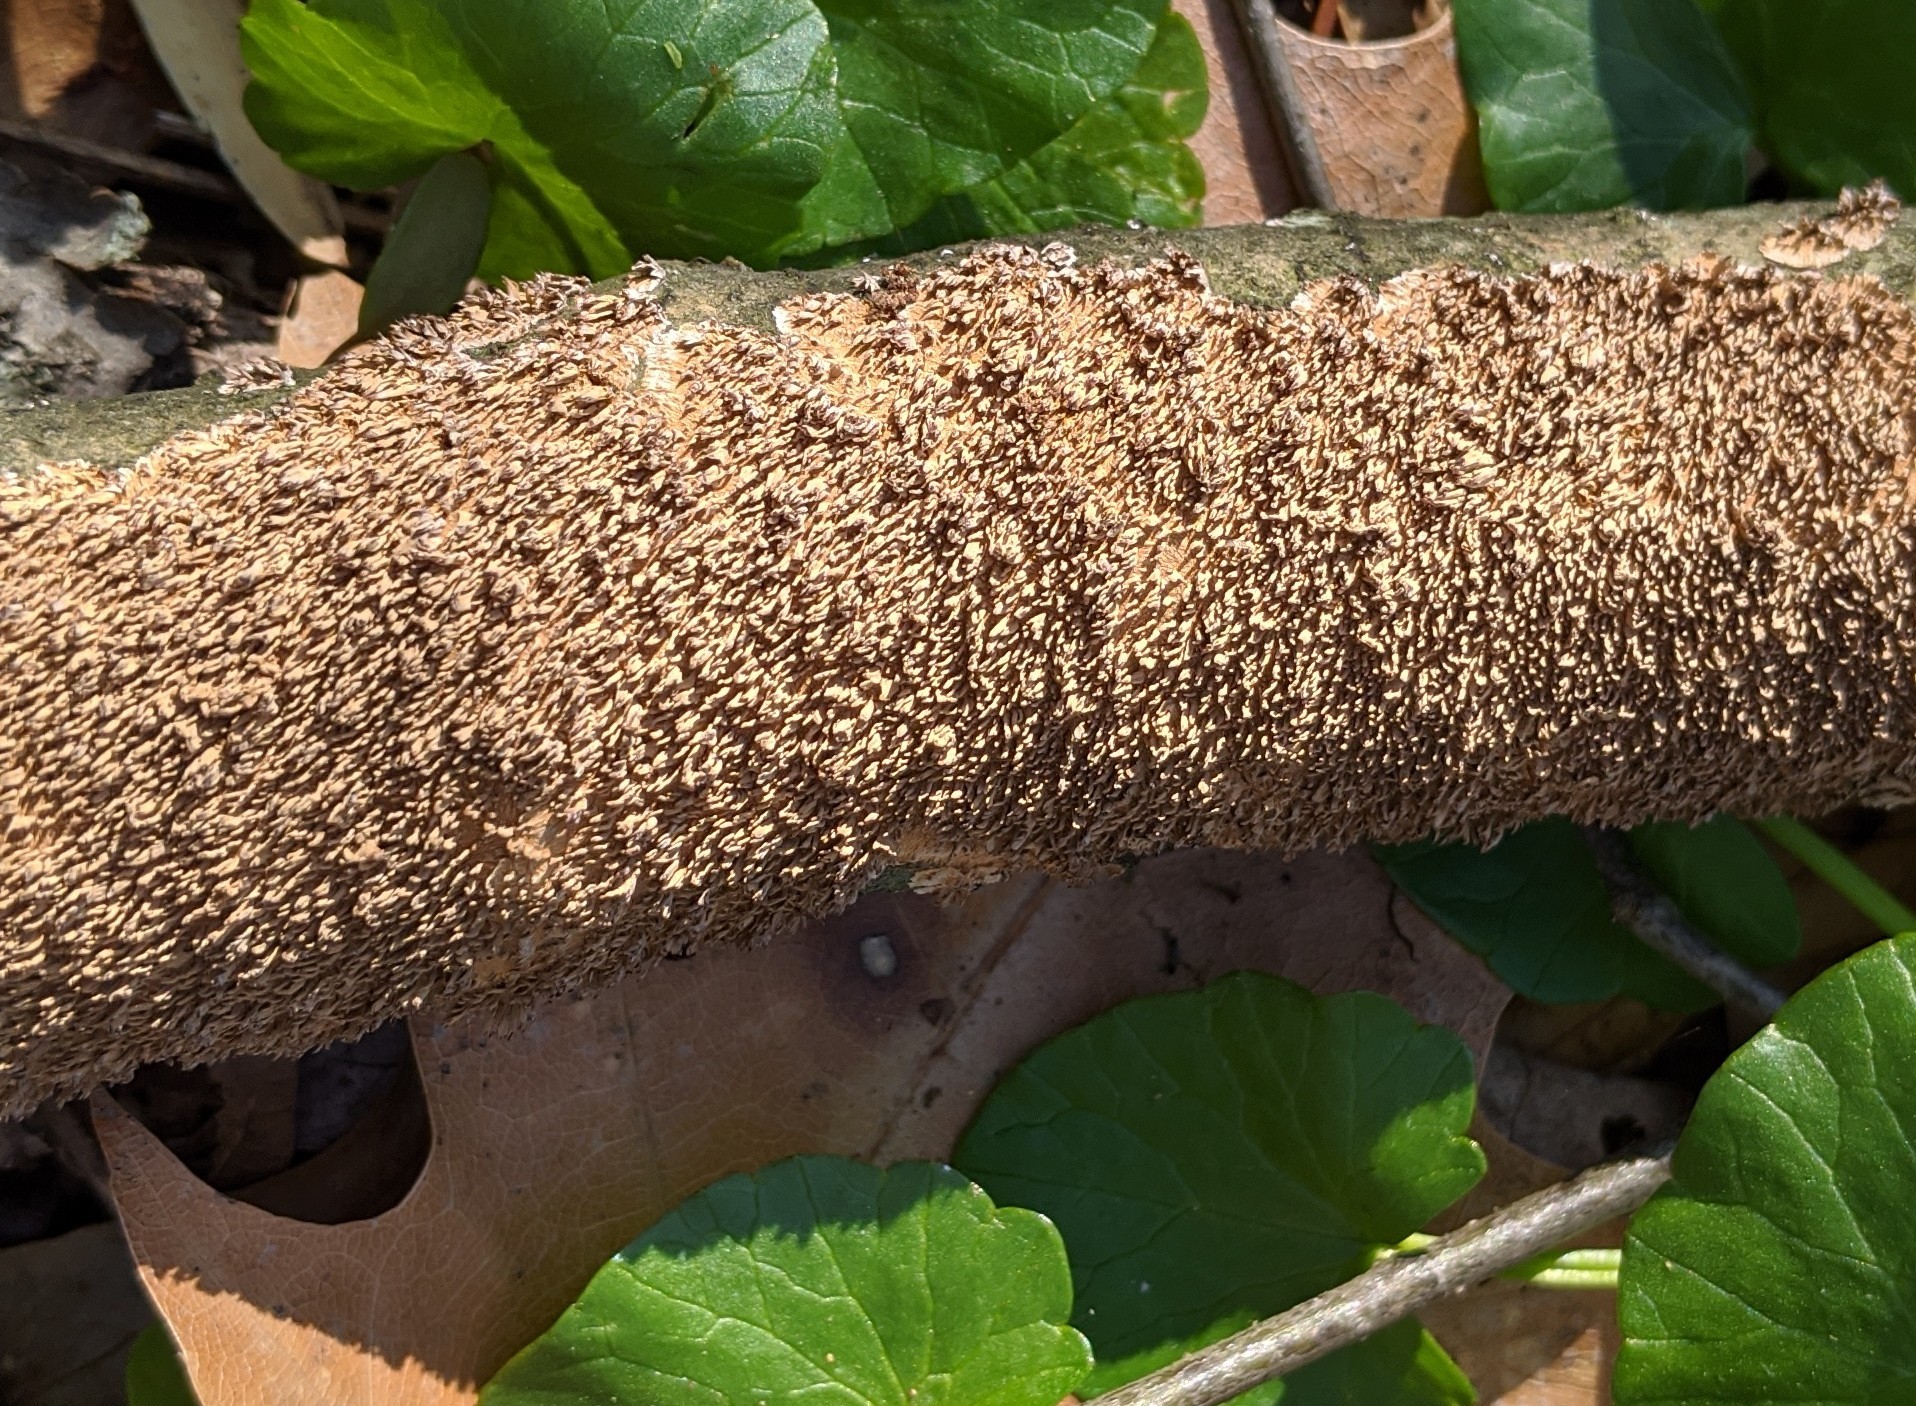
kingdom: Fungi
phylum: Basidiomycota
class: Agaricomycetes
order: Hymenochaetales
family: Hymenochaetaceae
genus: Hydnoporia
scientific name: Hydnoporia olivacea
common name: Brown-toothed crust fungus
